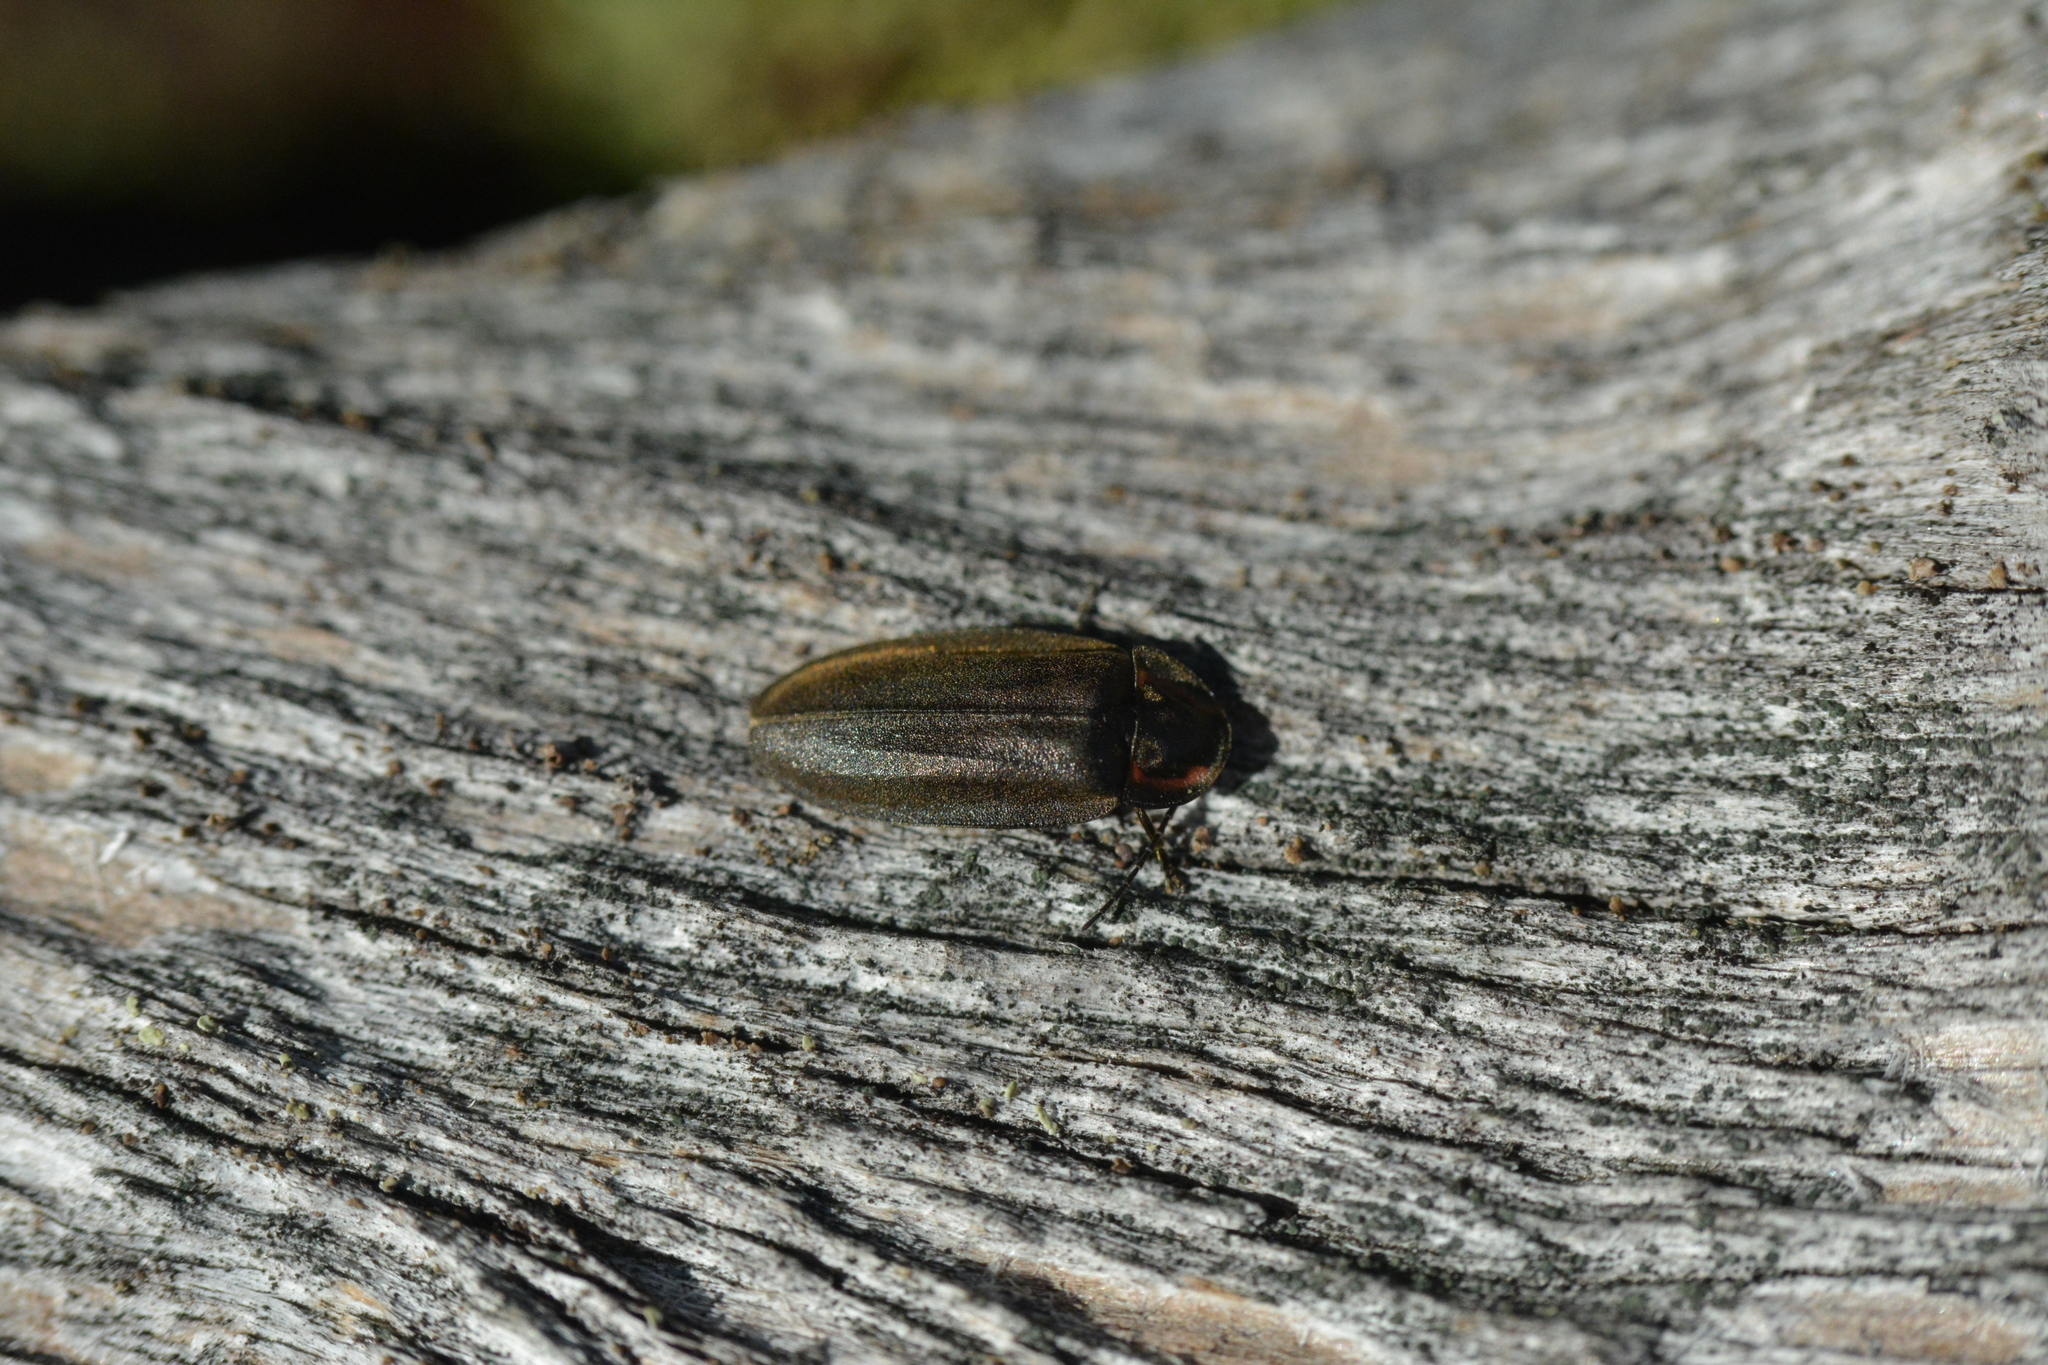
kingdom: Animalia
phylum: Arthropoda
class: Insecta
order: Coleoptera
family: Lampyridae
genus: Photinus
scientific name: Photinus corrusca
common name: Winter firefly
